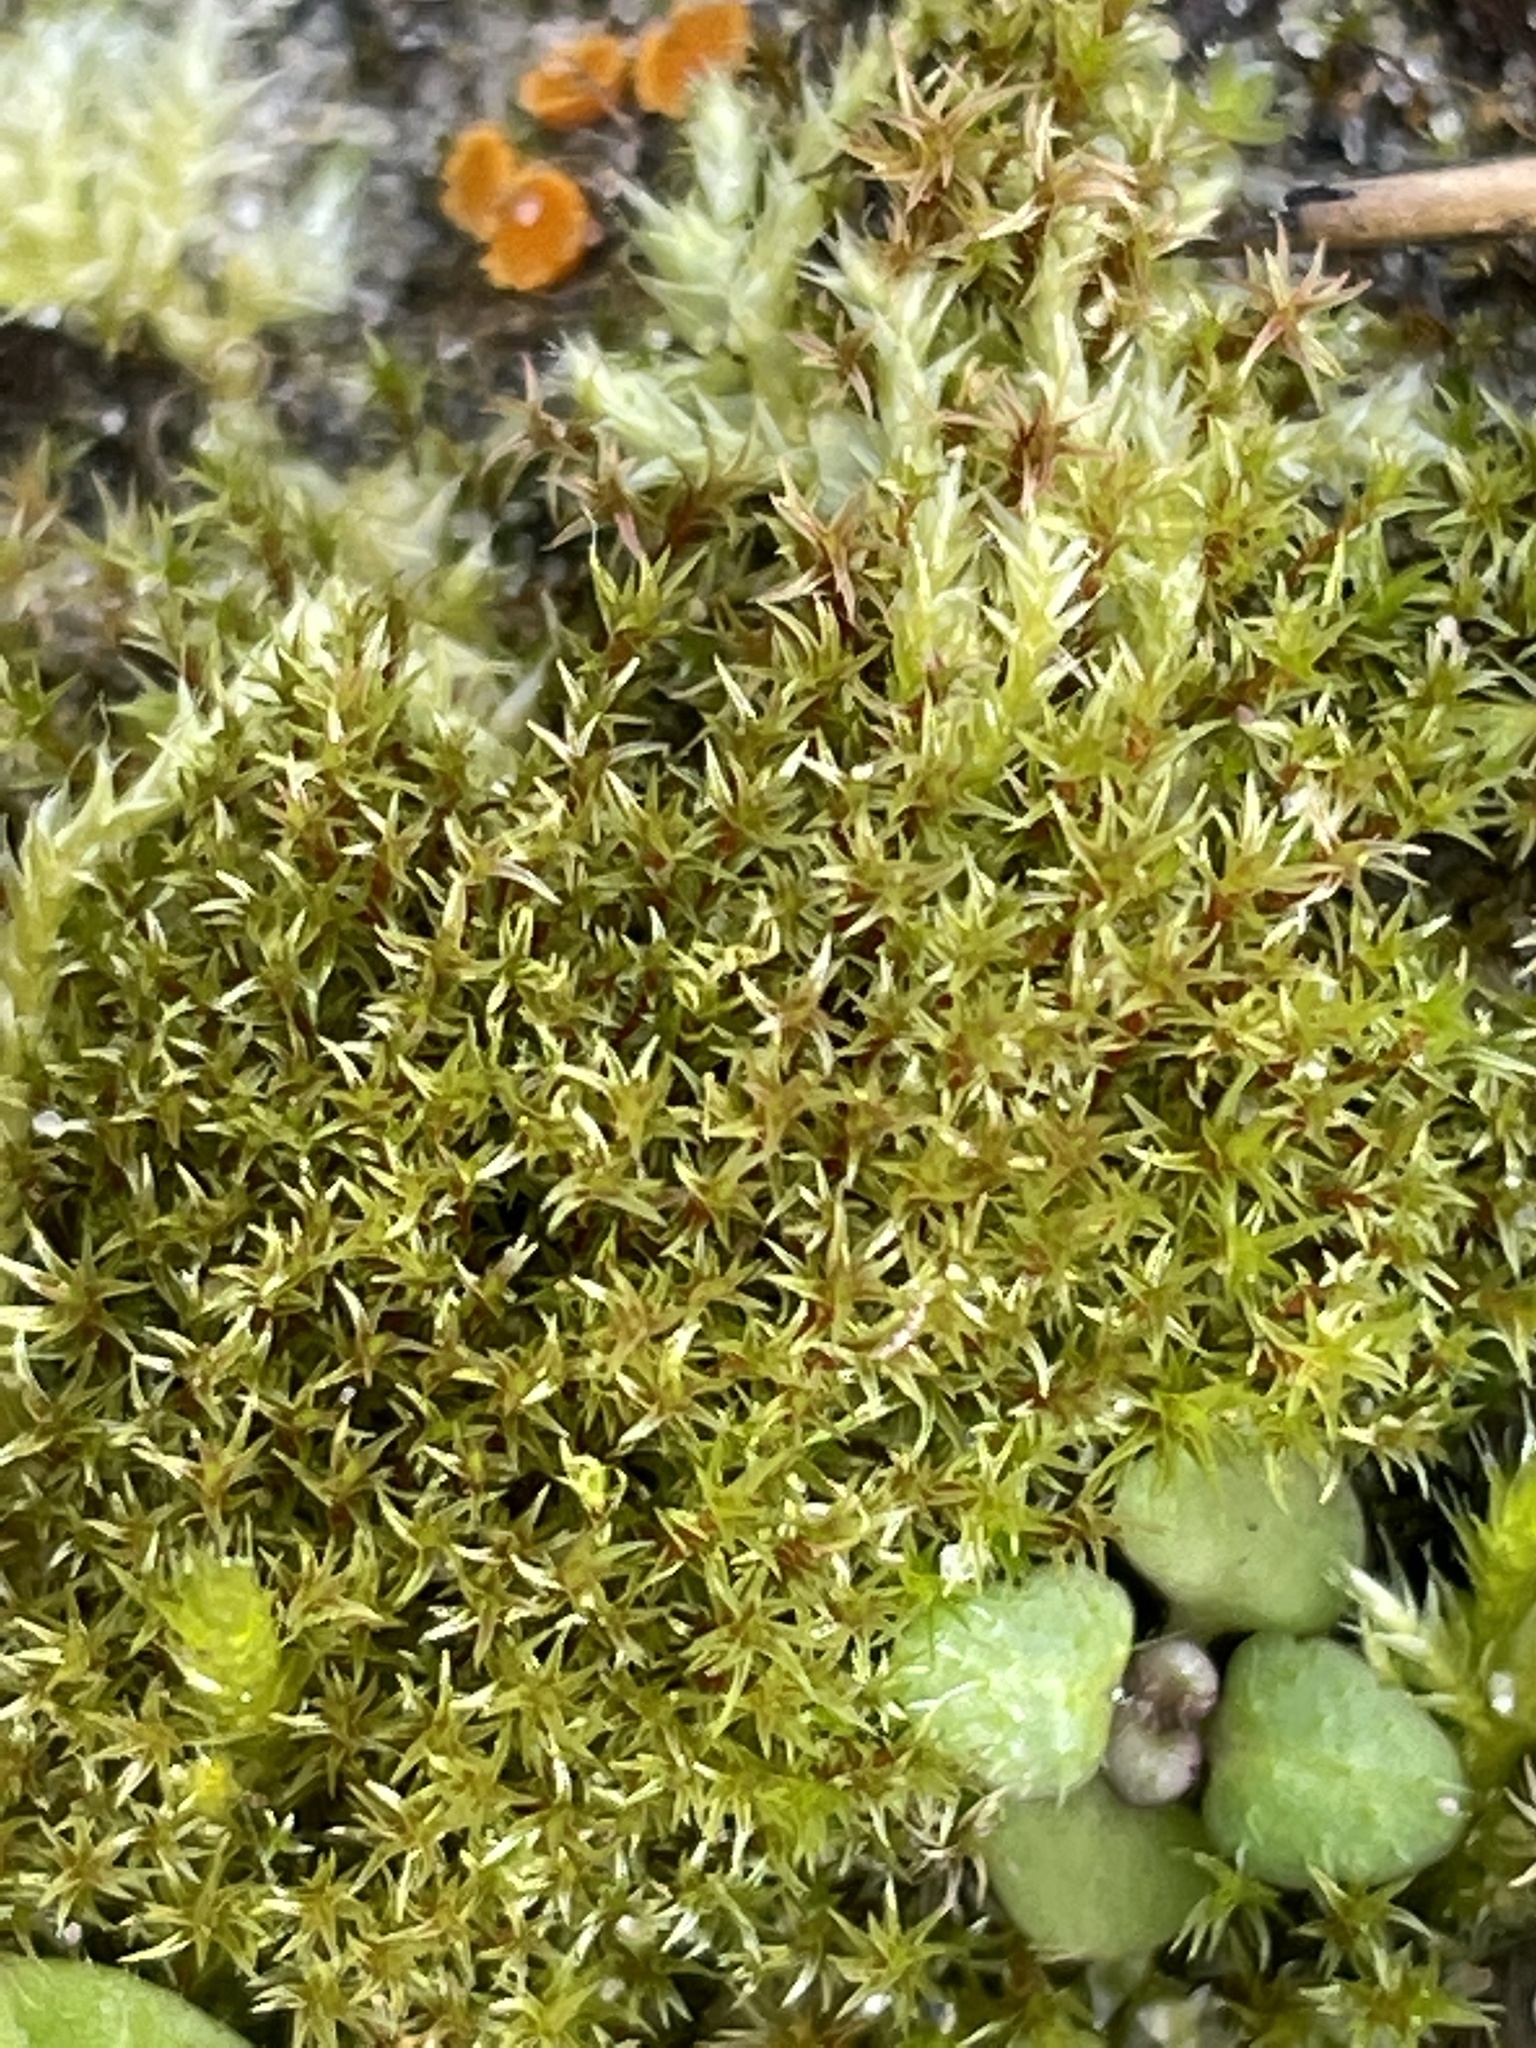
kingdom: Plantae
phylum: Bryophyta
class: Bryopsida
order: Dicranales
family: Ditrichaceae
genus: Ceratodon
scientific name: Ceratodon purpureus
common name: Redshank
